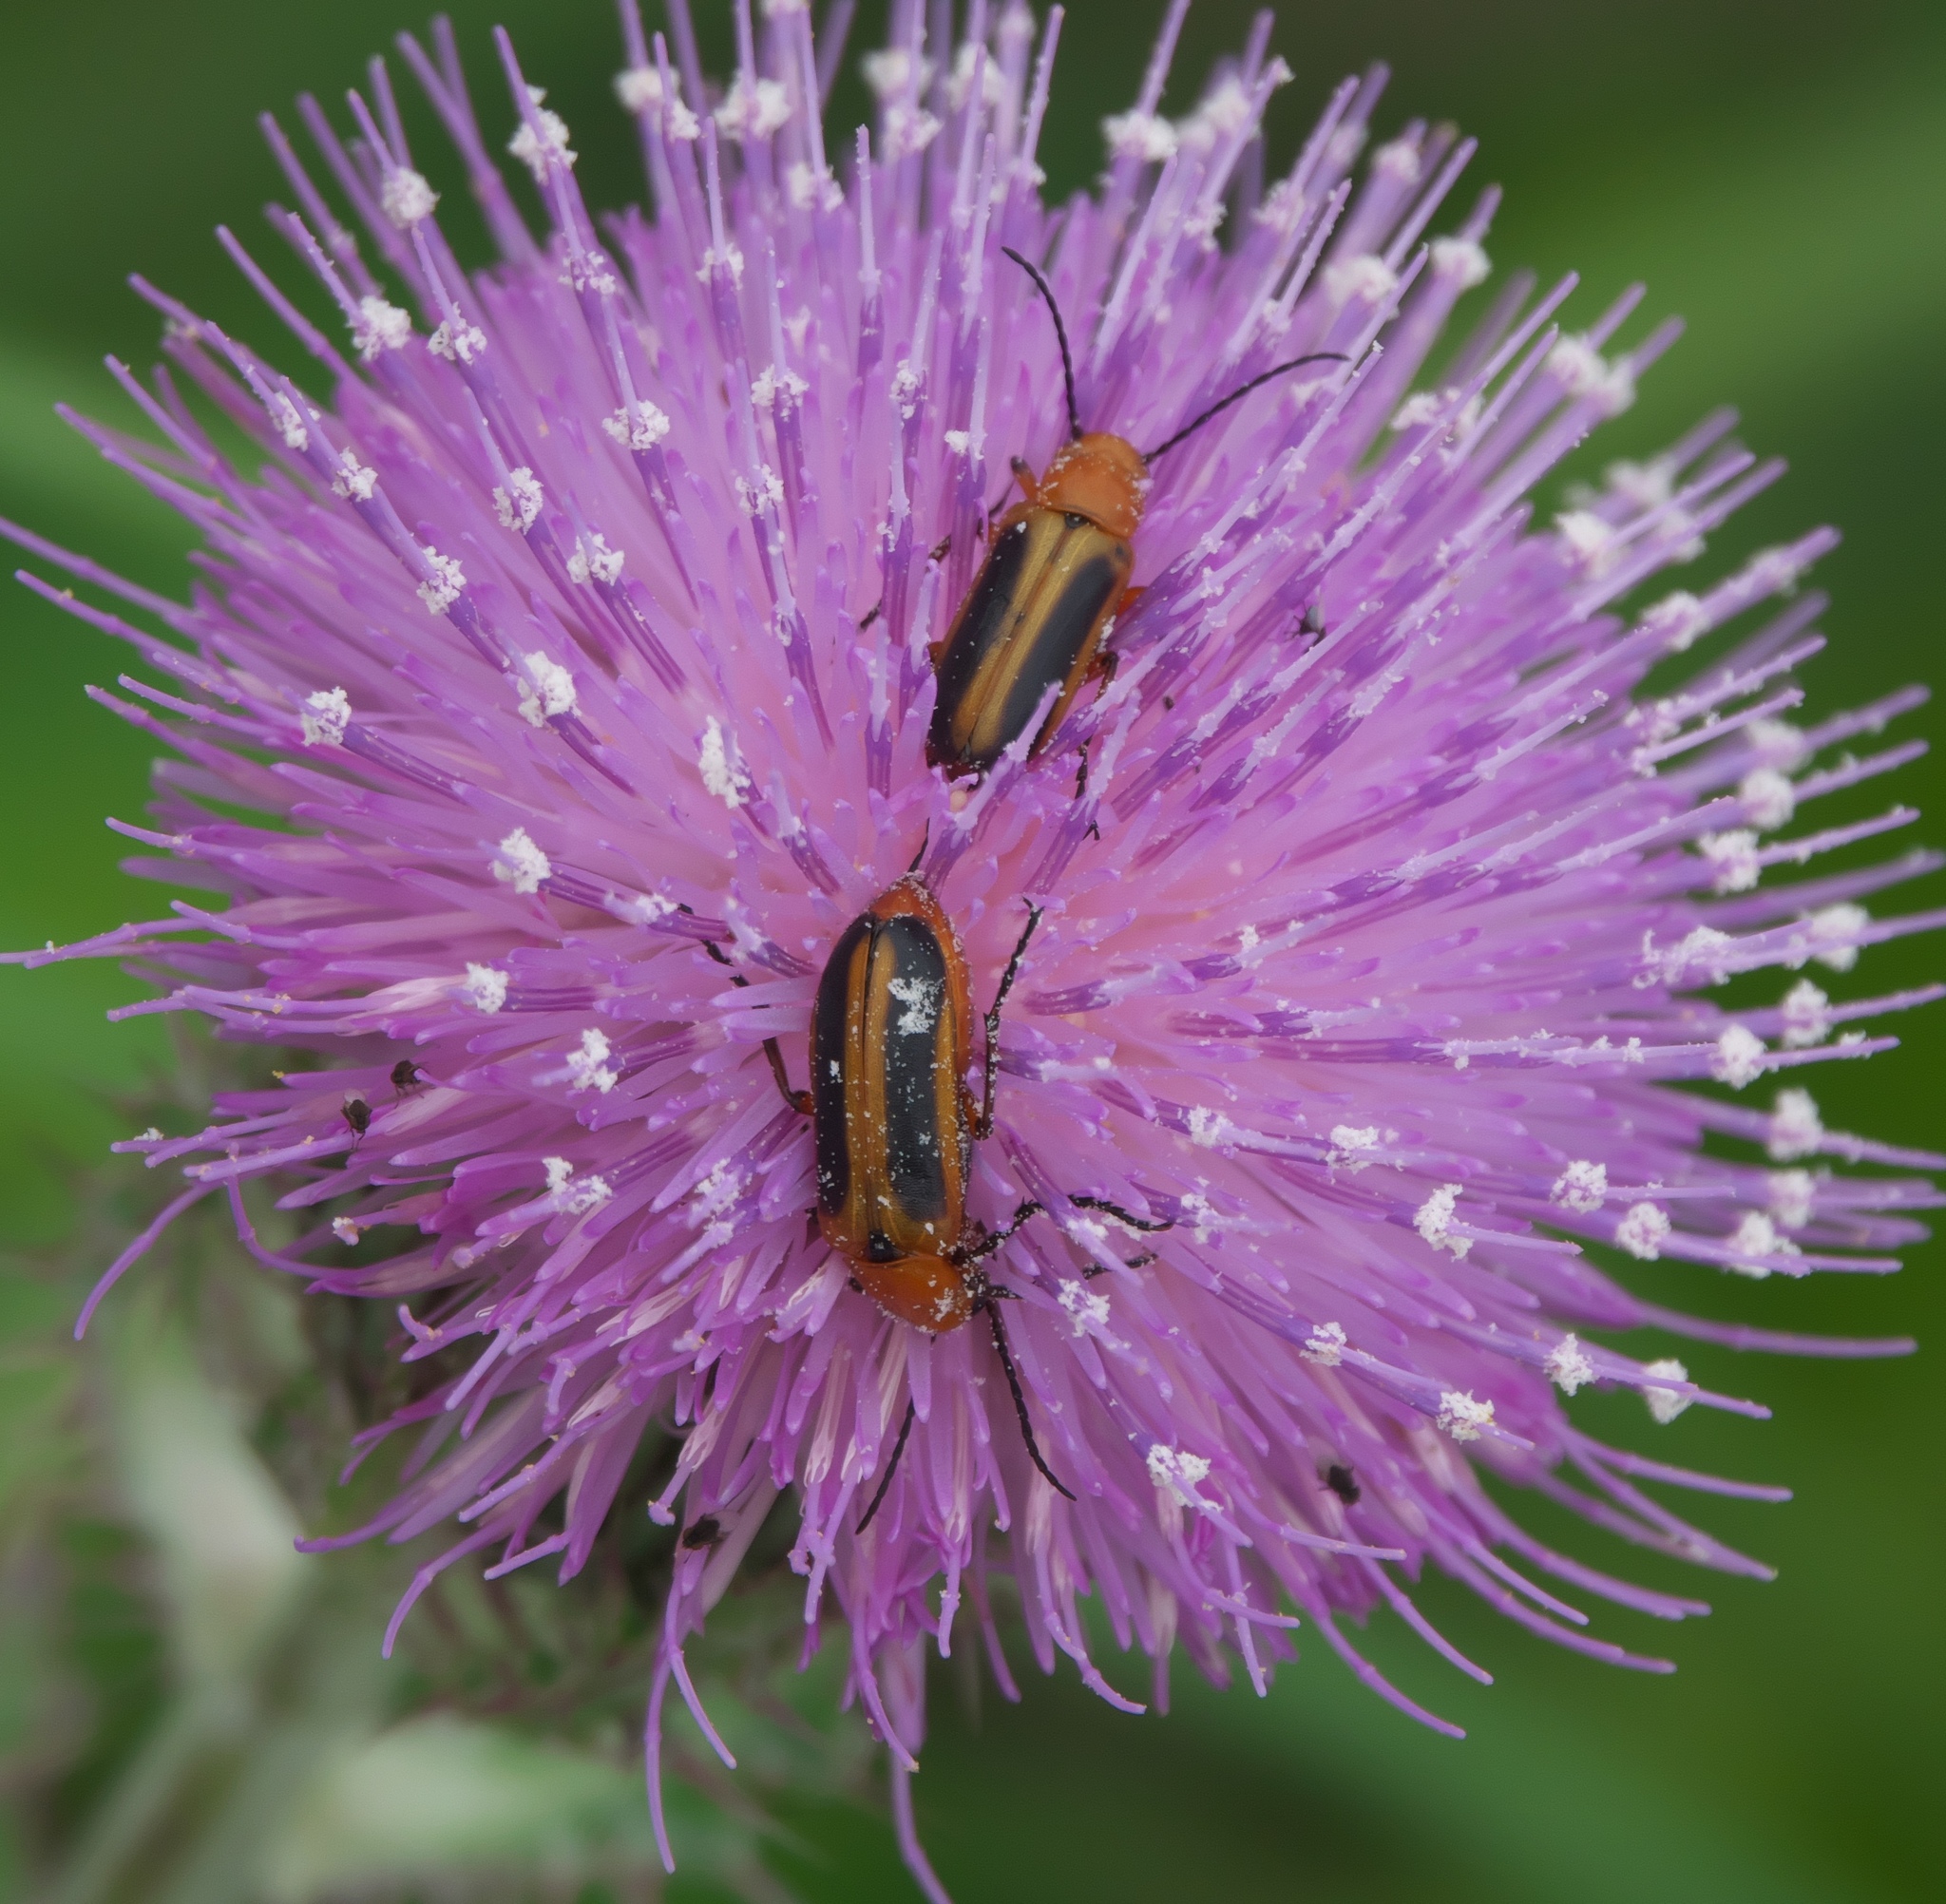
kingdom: Animalia
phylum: Arthropoda
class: Insecta
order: Coleoptera
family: Meloidae
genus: Nemognatha
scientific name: Nemognatha piazata
